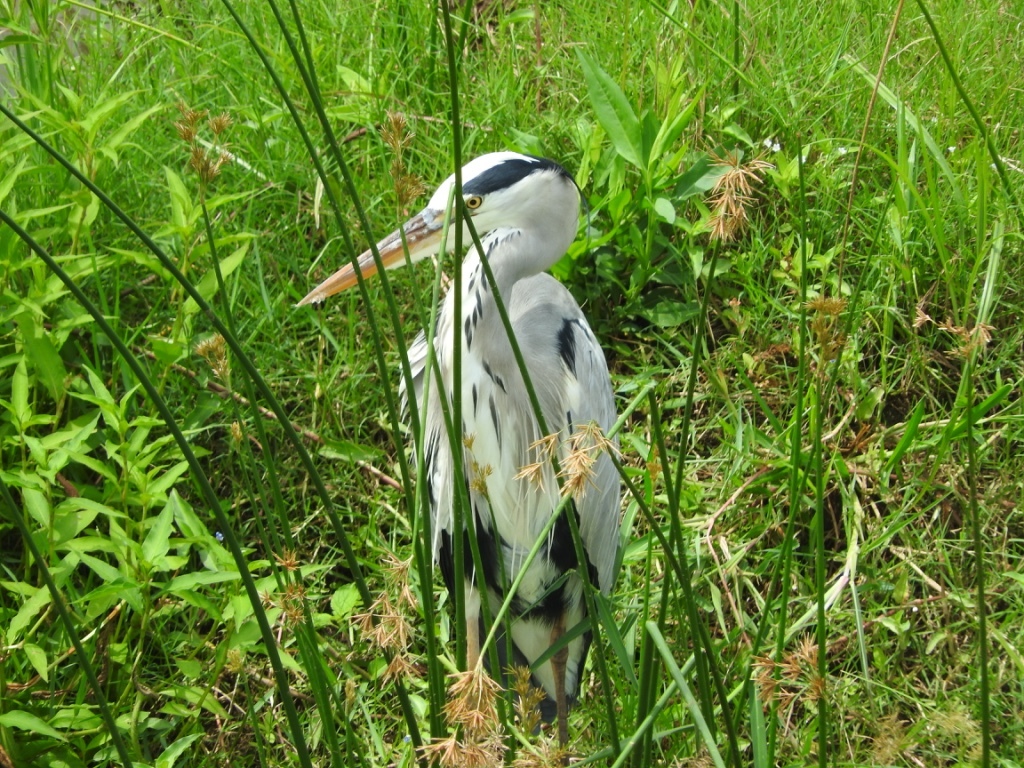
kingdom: Animalia
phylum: Chordata
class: Aves
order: Pelecaniformes
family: Ardeidae
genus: Ardea
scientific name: Ardea cinerea
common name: Grey heron
